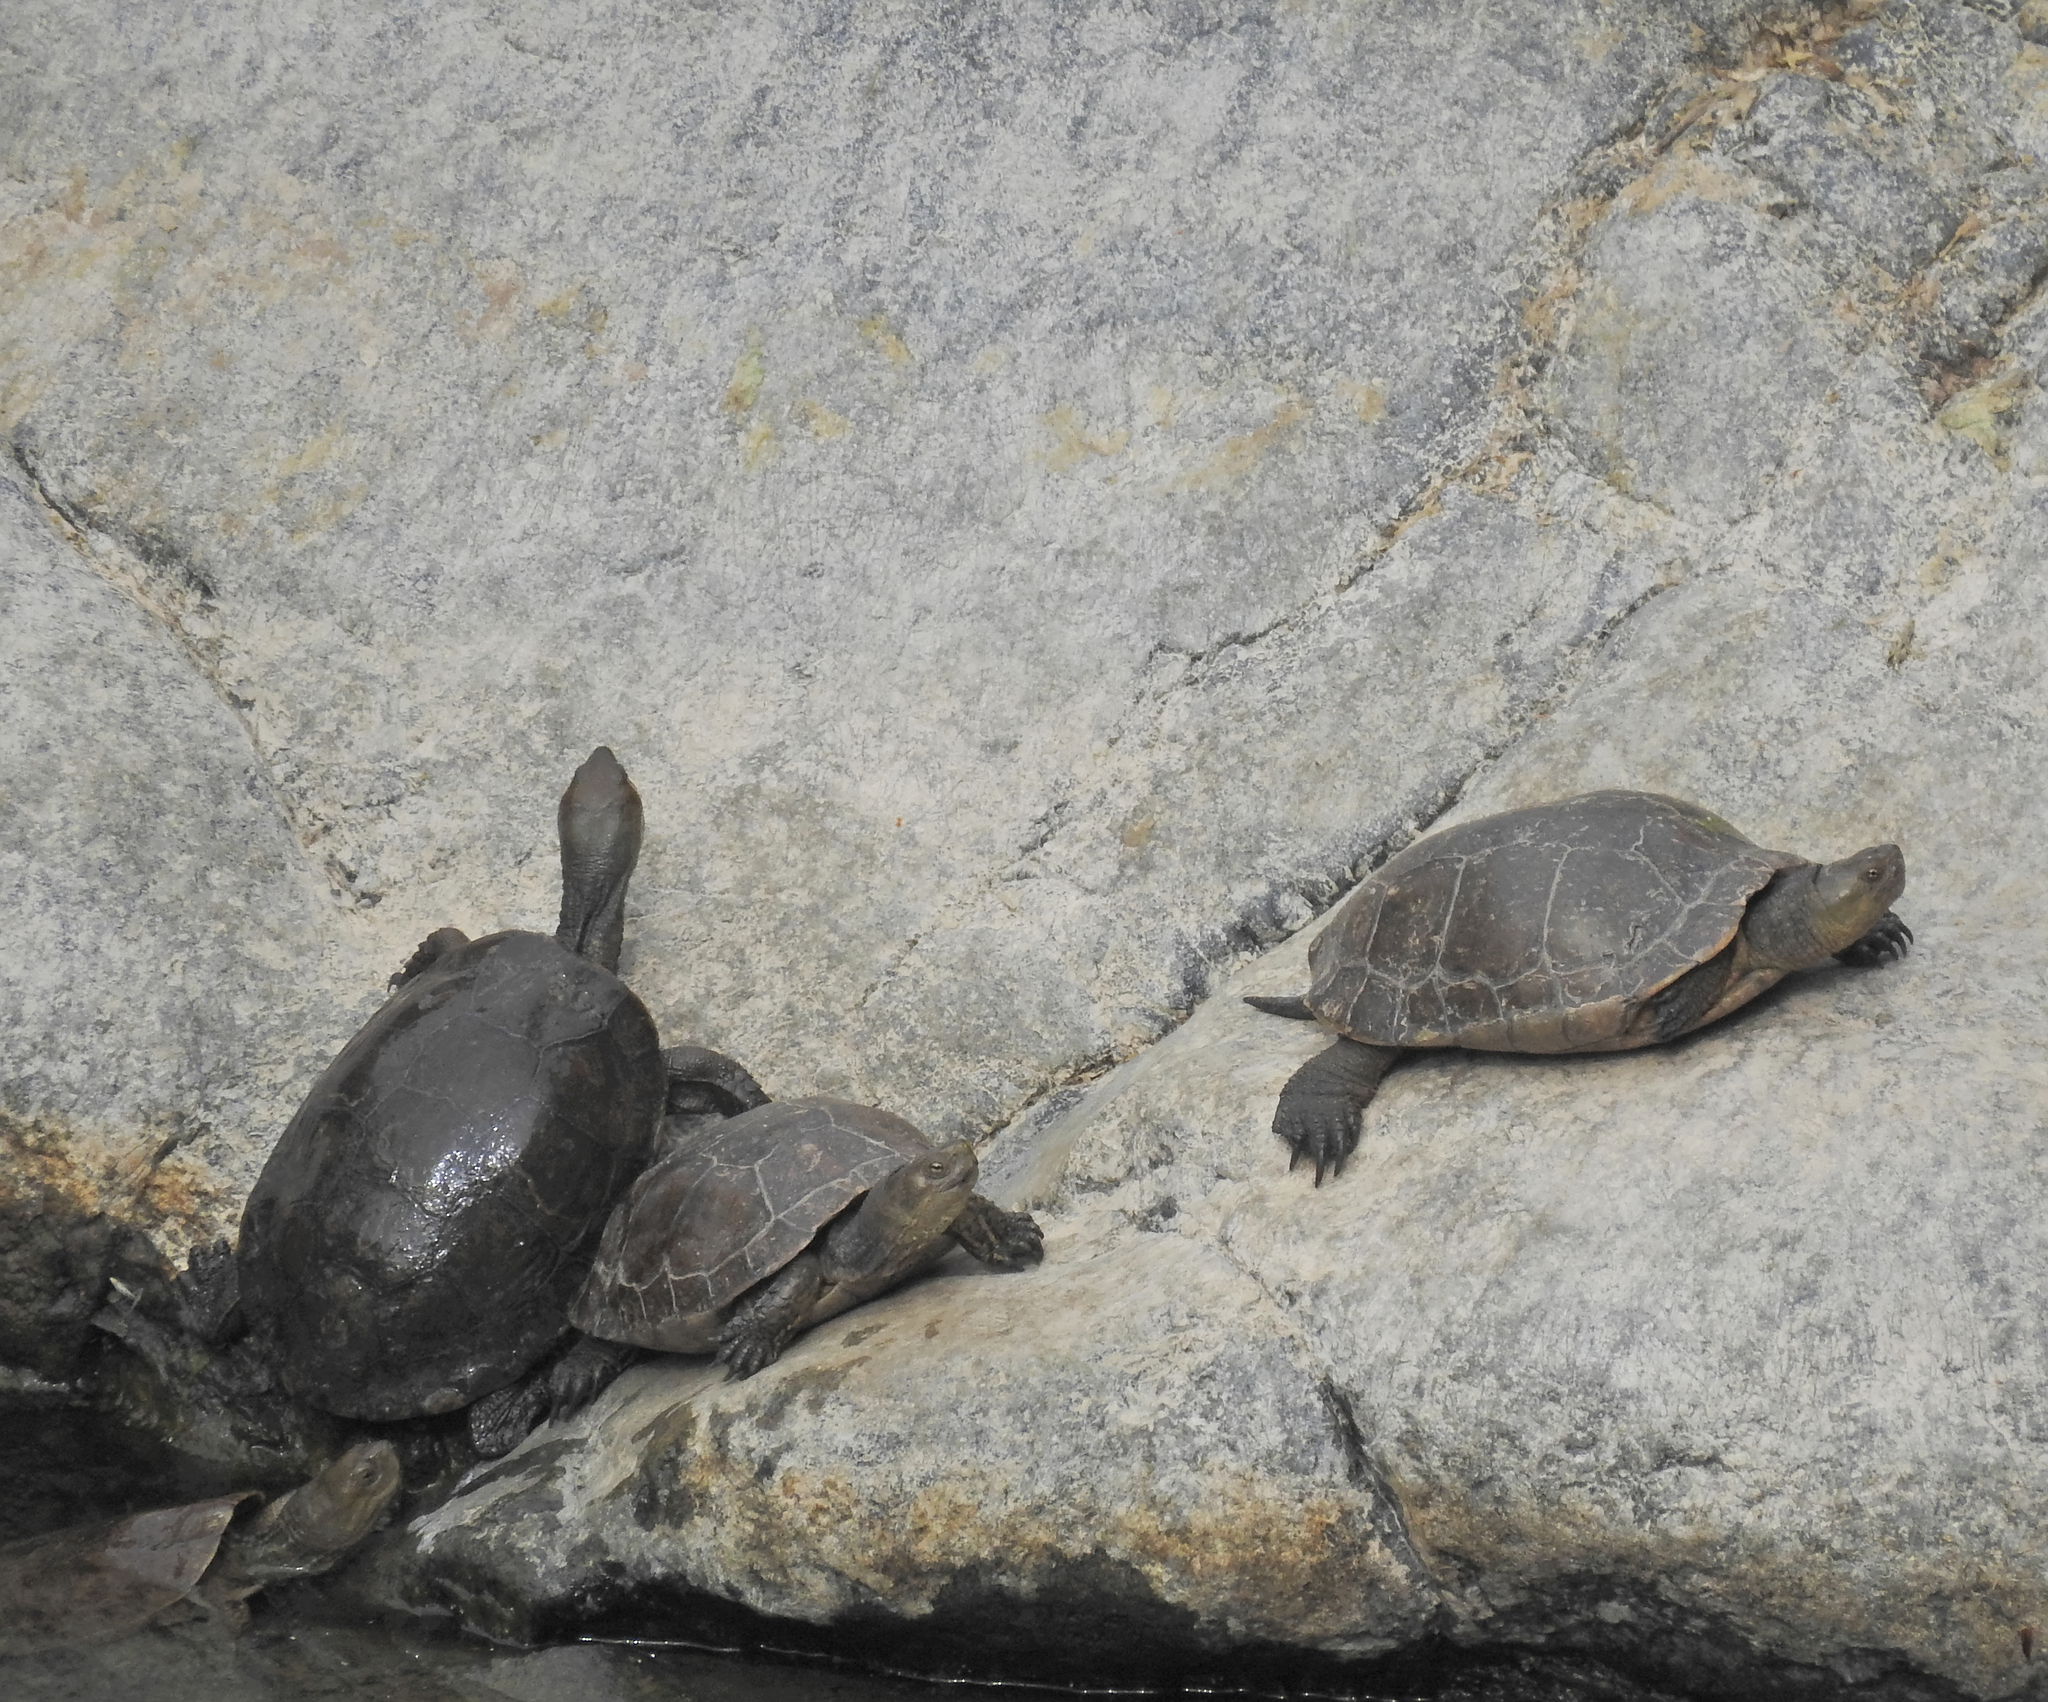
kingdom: Animalia
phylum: Chordata
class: Testudines
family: Geoemydidae
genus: Mauremys
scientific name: Mauremys leprosa
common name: Mediterranean pond turtle
